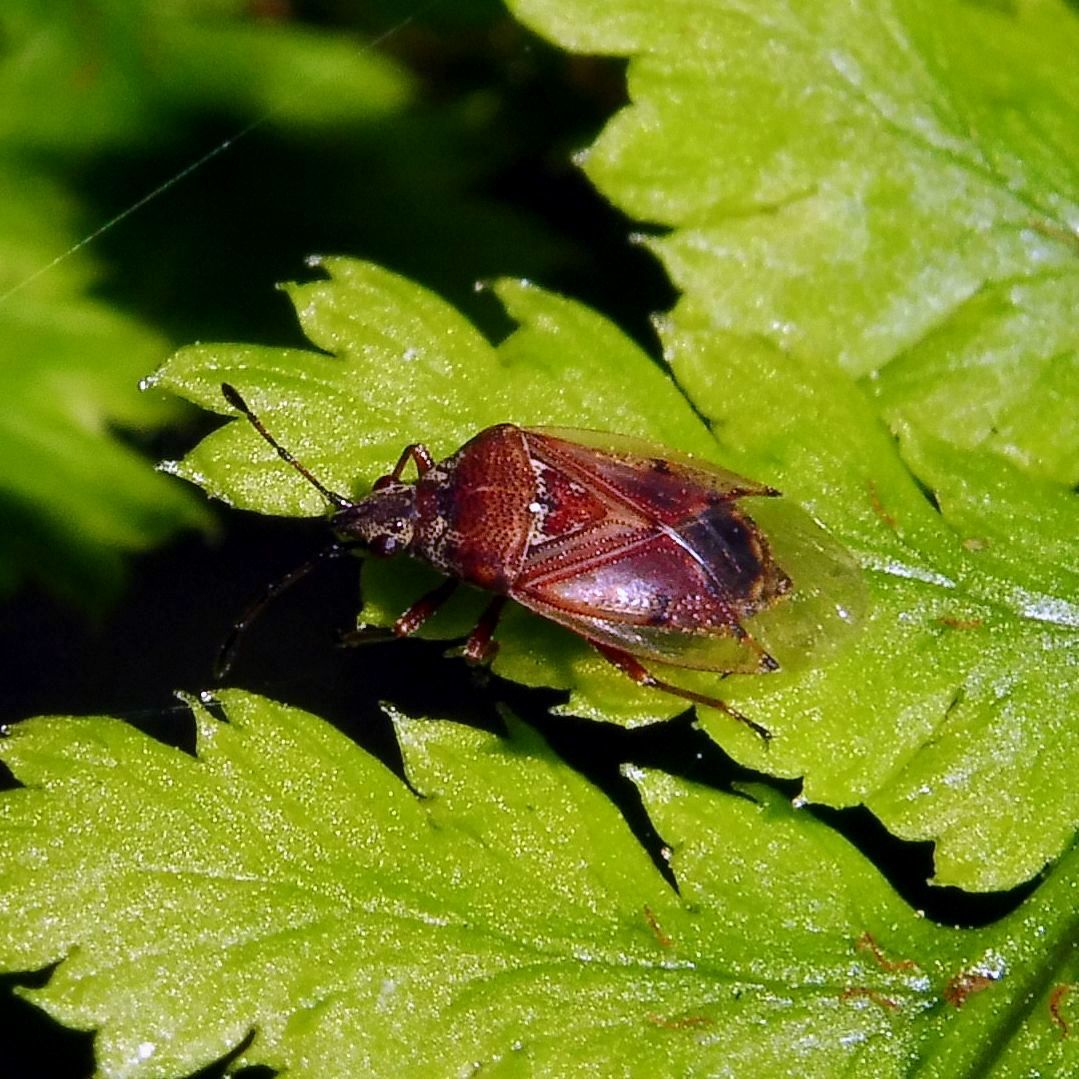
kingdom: Animalia
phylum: Arthropoda
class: Insecta
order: Hemiptera
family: Lygaeidae
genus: Kleidocerys
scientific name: Kleidocerys resedae
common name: Birch catkin bug
